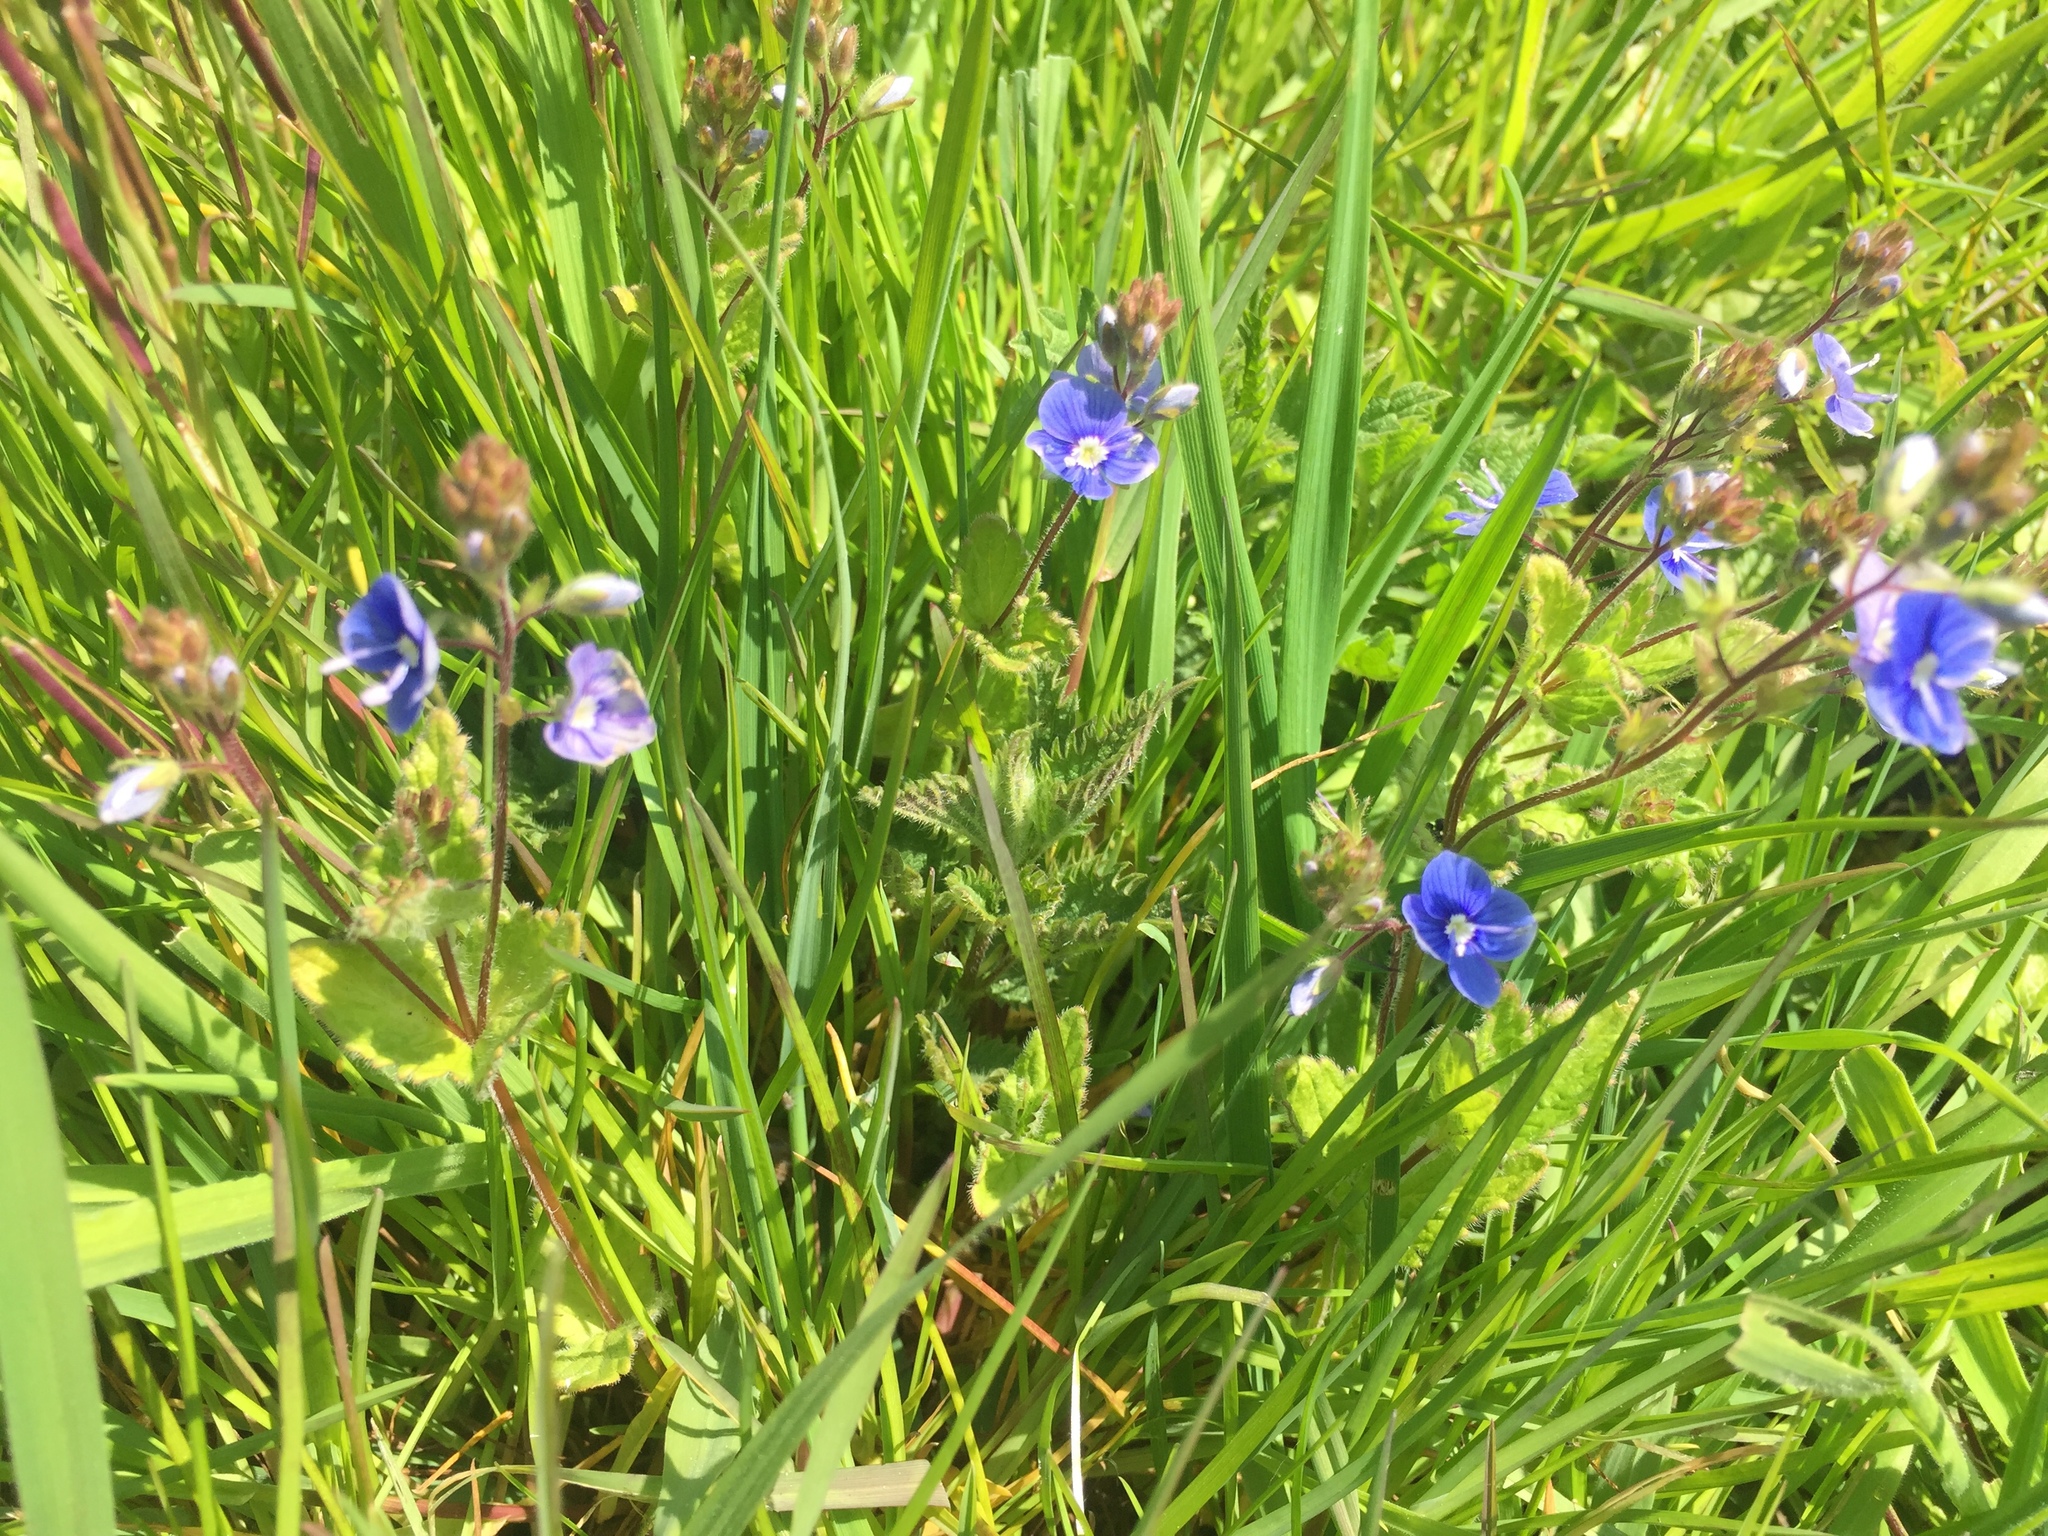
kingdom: Plantae
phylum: Tracheophyta
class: Magnoliopsida
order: Lamiales
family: Plantaginaceae
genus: Veronica
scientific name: Veronica chamaedrys
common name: Germander speedwell
